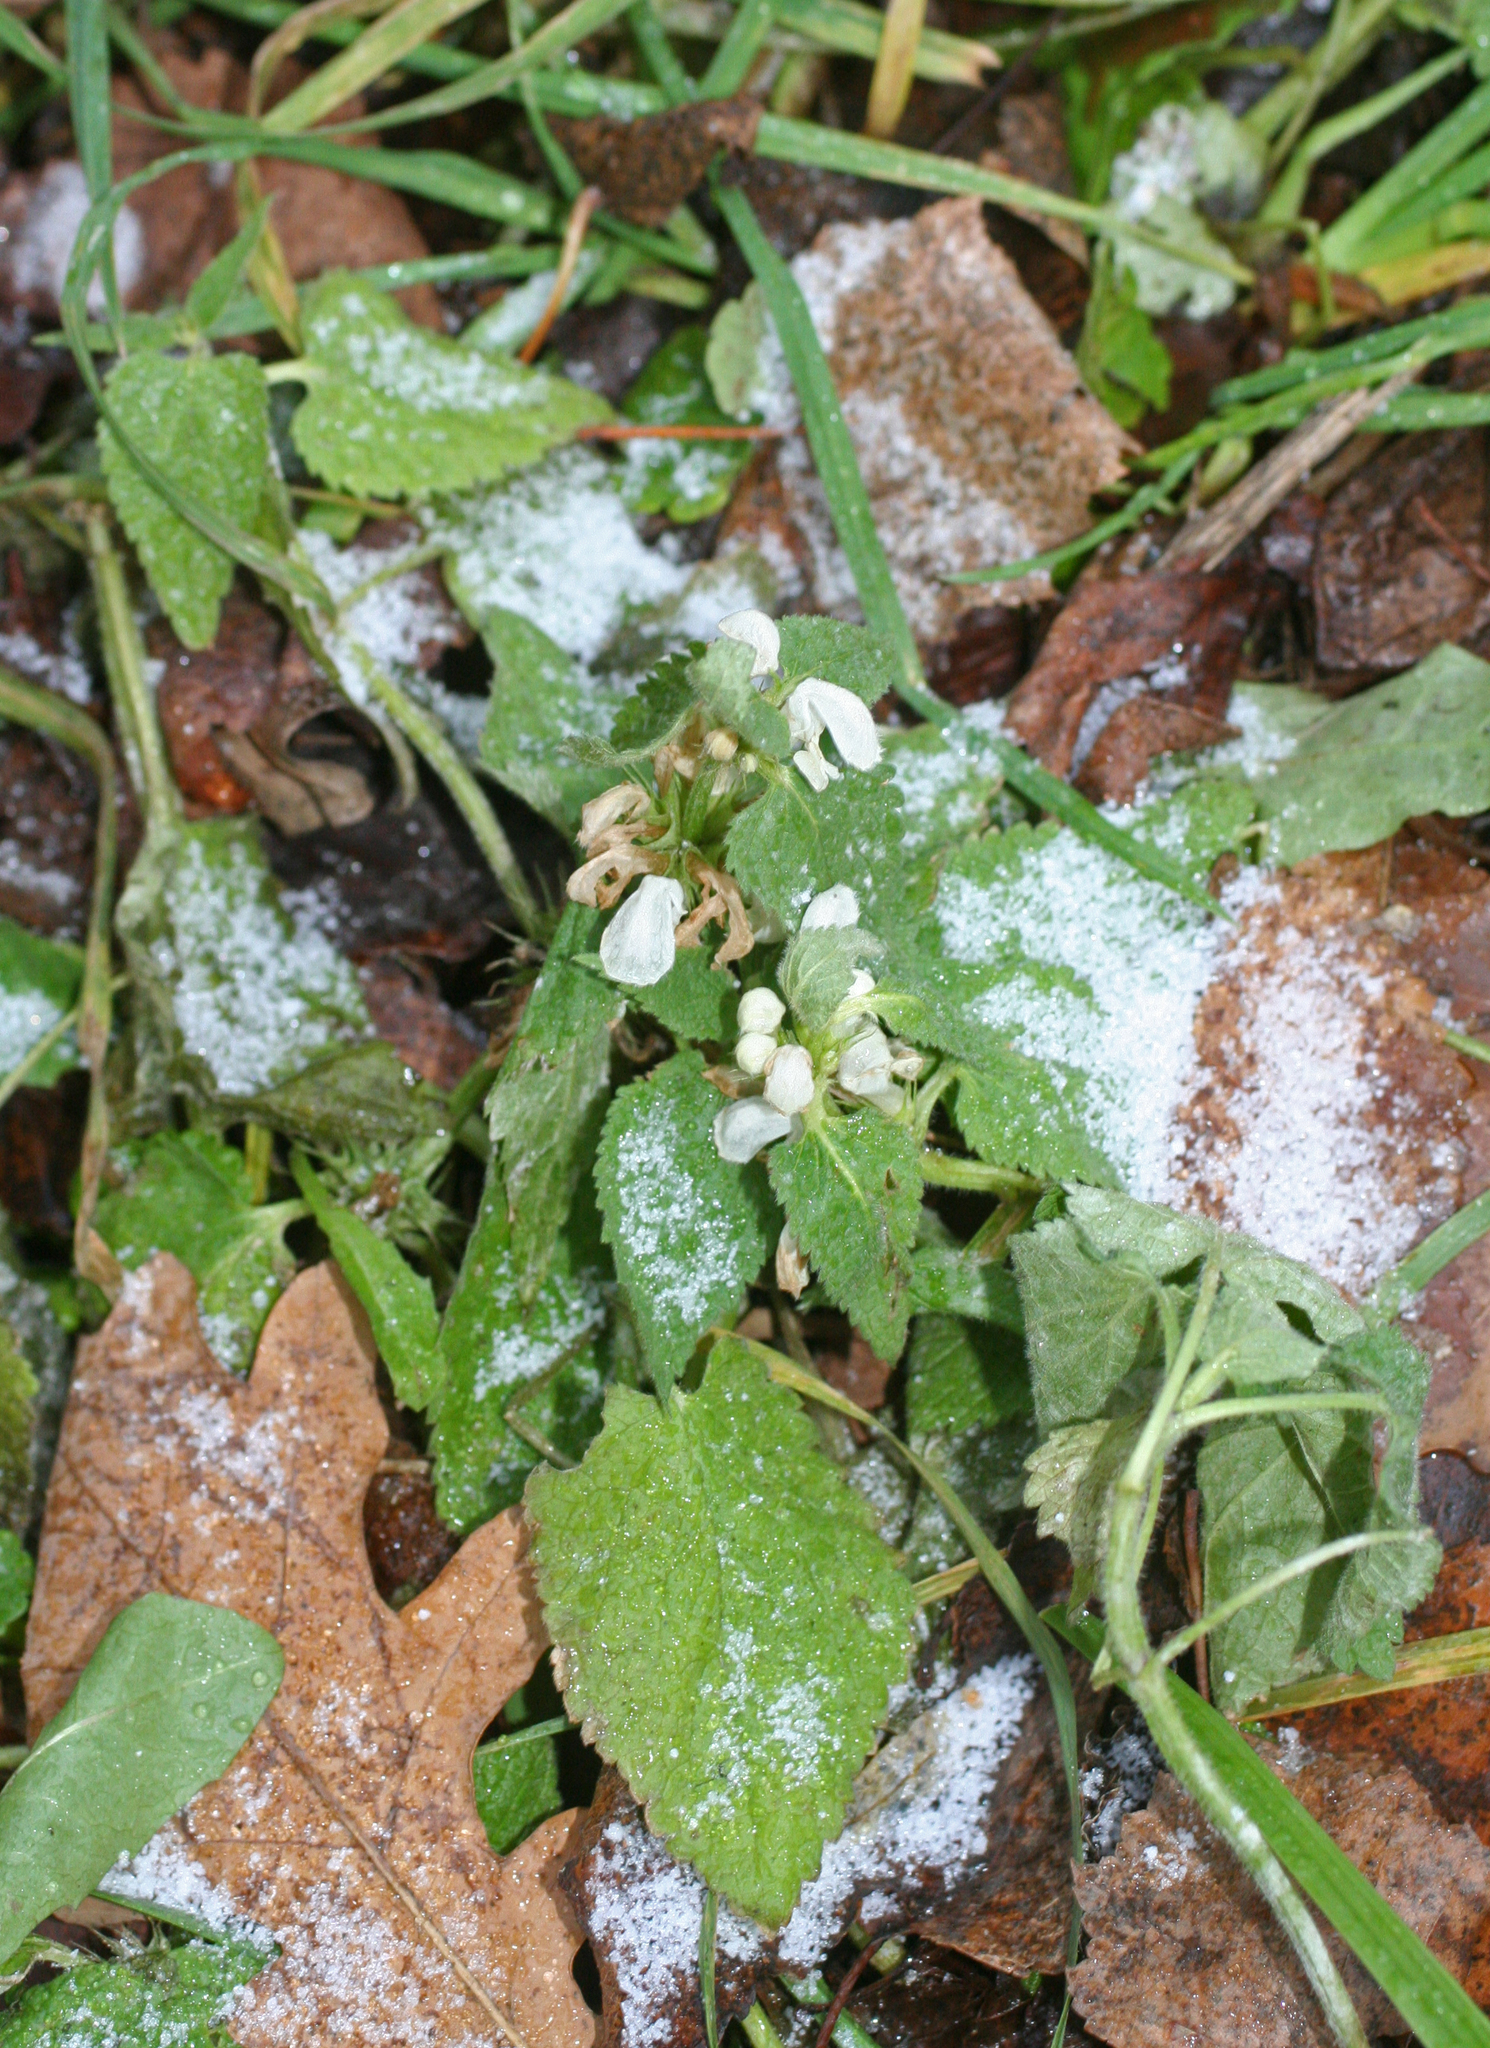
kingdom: Plantae
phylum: Tracheophyta
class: Magnoliopsida
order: Lamiales
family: Lamiaceae
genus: Lamium
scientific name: Lamium album
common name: White dead-nettle
